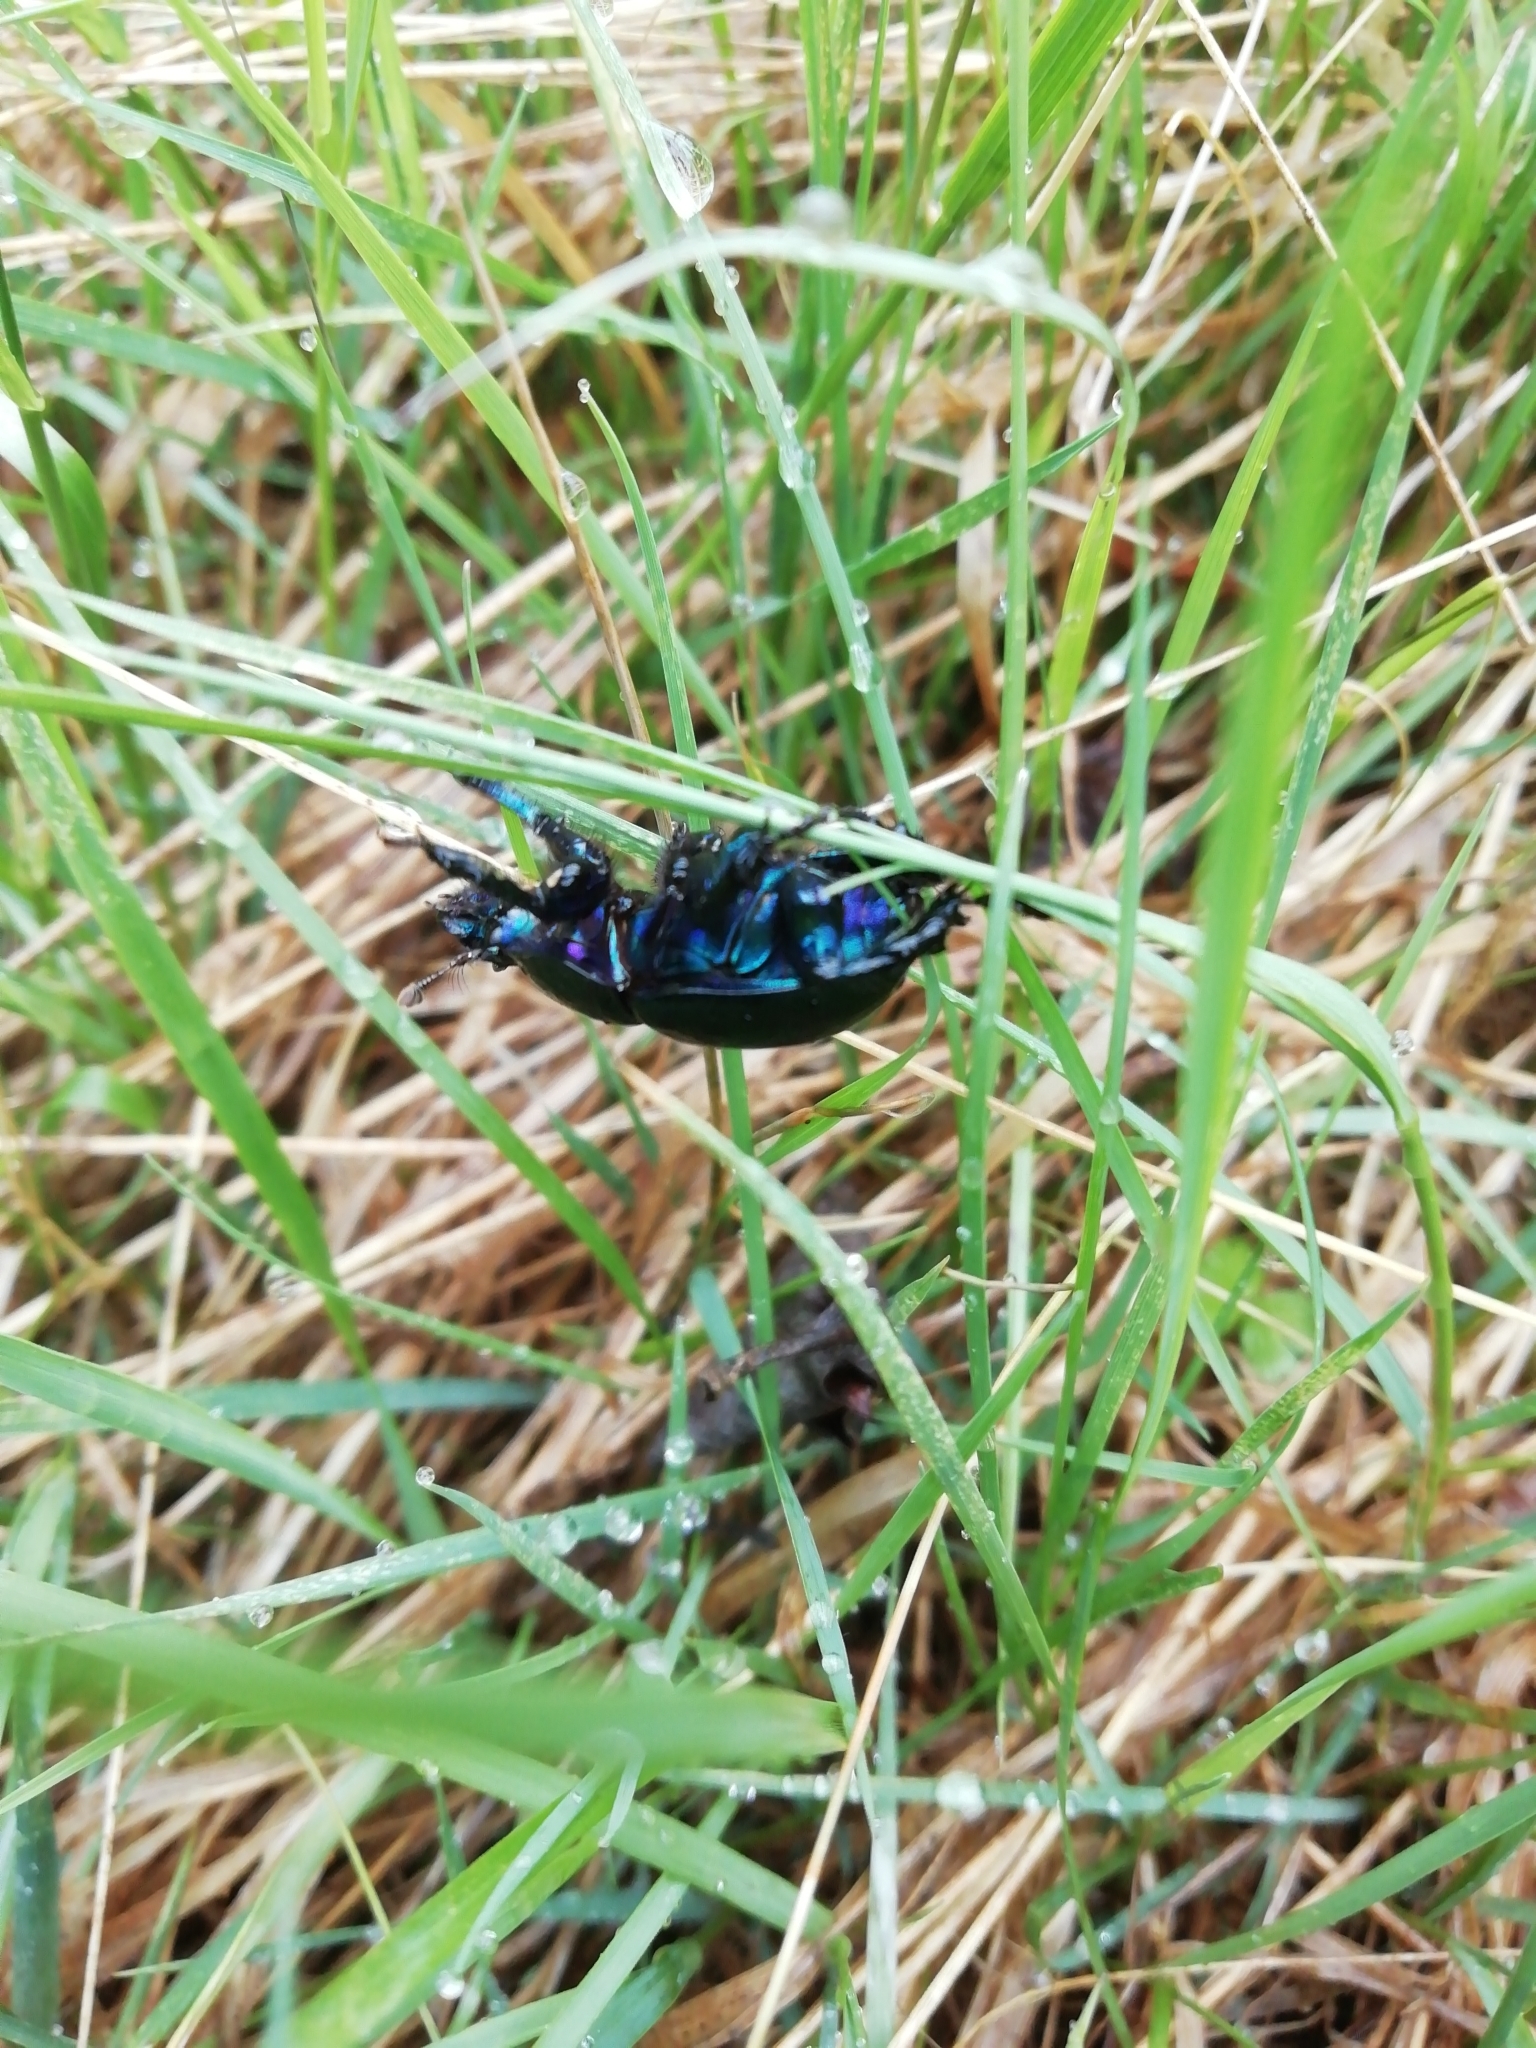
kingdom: Animalia
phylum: Arthropoda
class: Insecta
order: Coleoptera
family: Geotrupidae
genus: Anoplotrupes
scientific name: Anoplotrupes stercorosus
